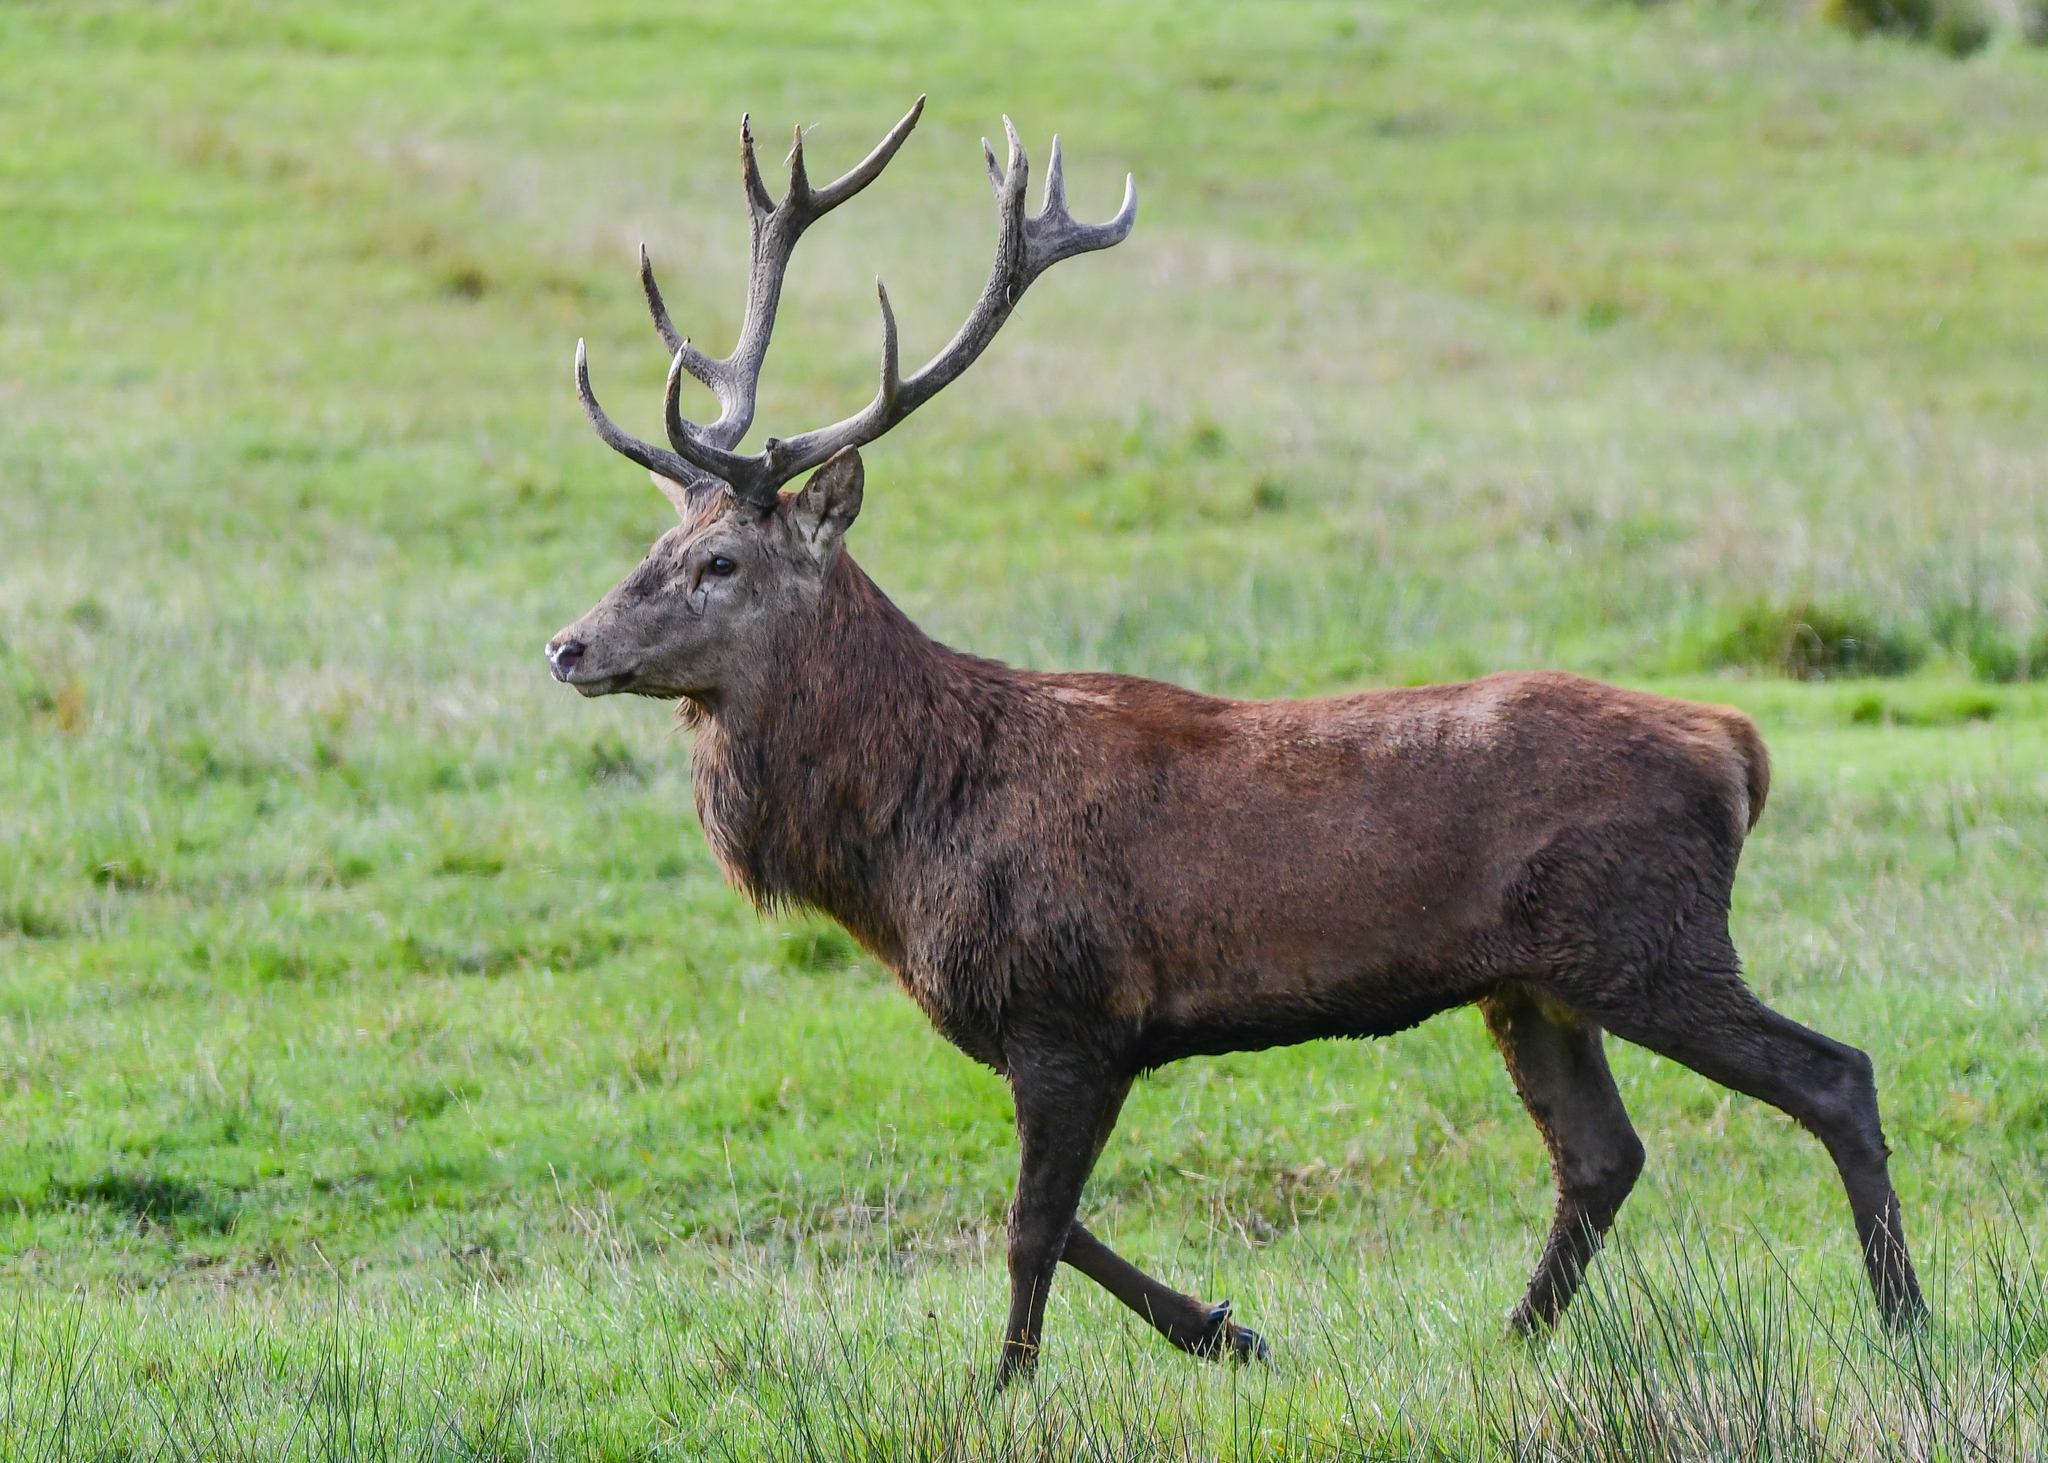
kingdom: Animalia
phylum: Chordata
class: Mammalia
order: Artiodactyla
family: Cervidae
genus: Cervus
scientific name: Cervus elaphus
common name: Red deer
